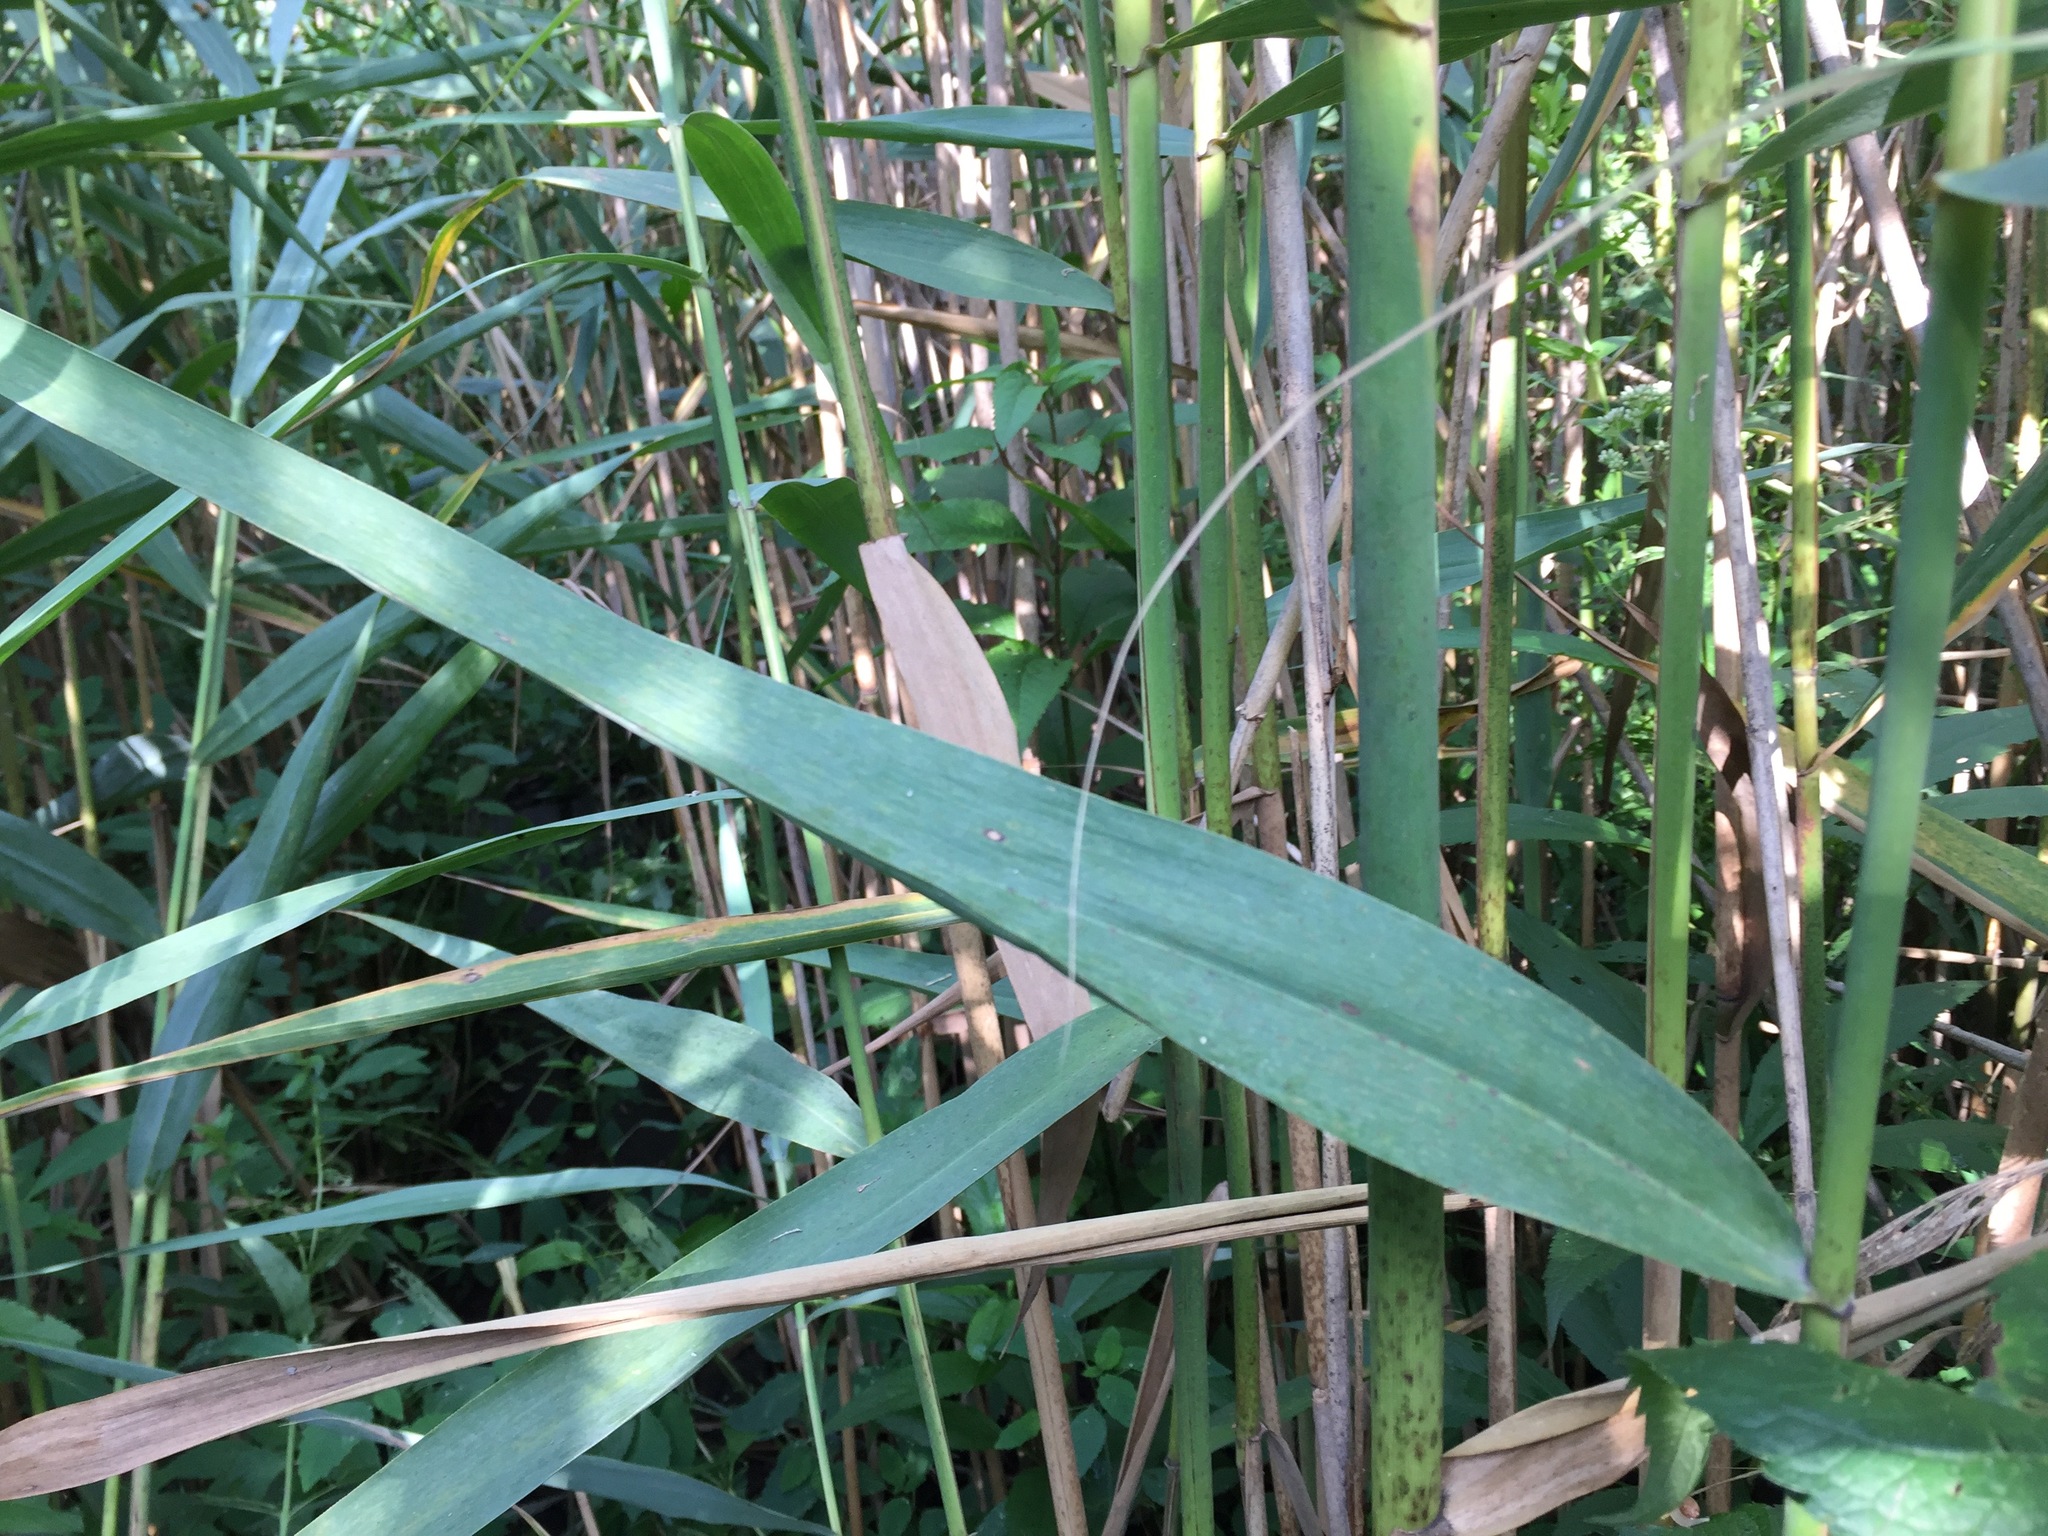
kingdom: Plantae
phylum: Tracheophyta
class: Liliopsida
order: Poales
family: Poaceae
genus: Phragmites
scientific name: Phragmites australis
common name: Common reed
